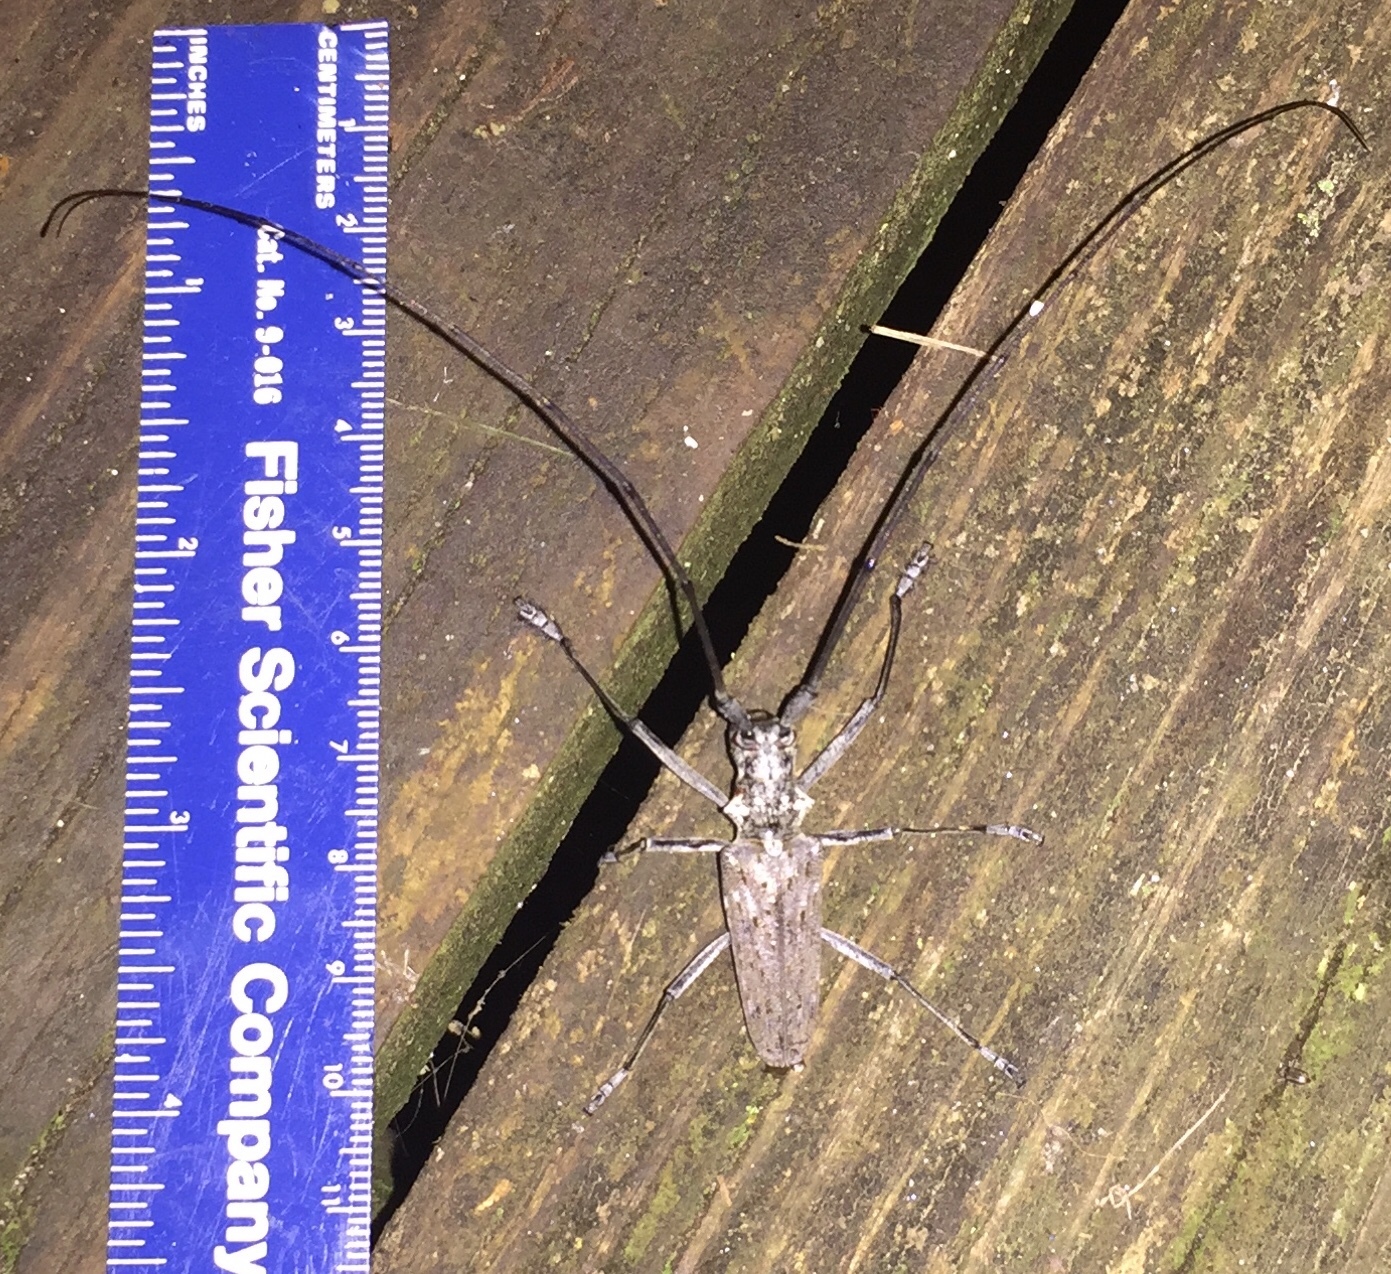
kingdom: Animalia
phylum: Arthropoda
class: Insecta
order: Coleoptera
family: Cerambycidae
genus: Monochamus
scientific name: Monochamus notatus
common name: Northeastern pine sawyer beetle
